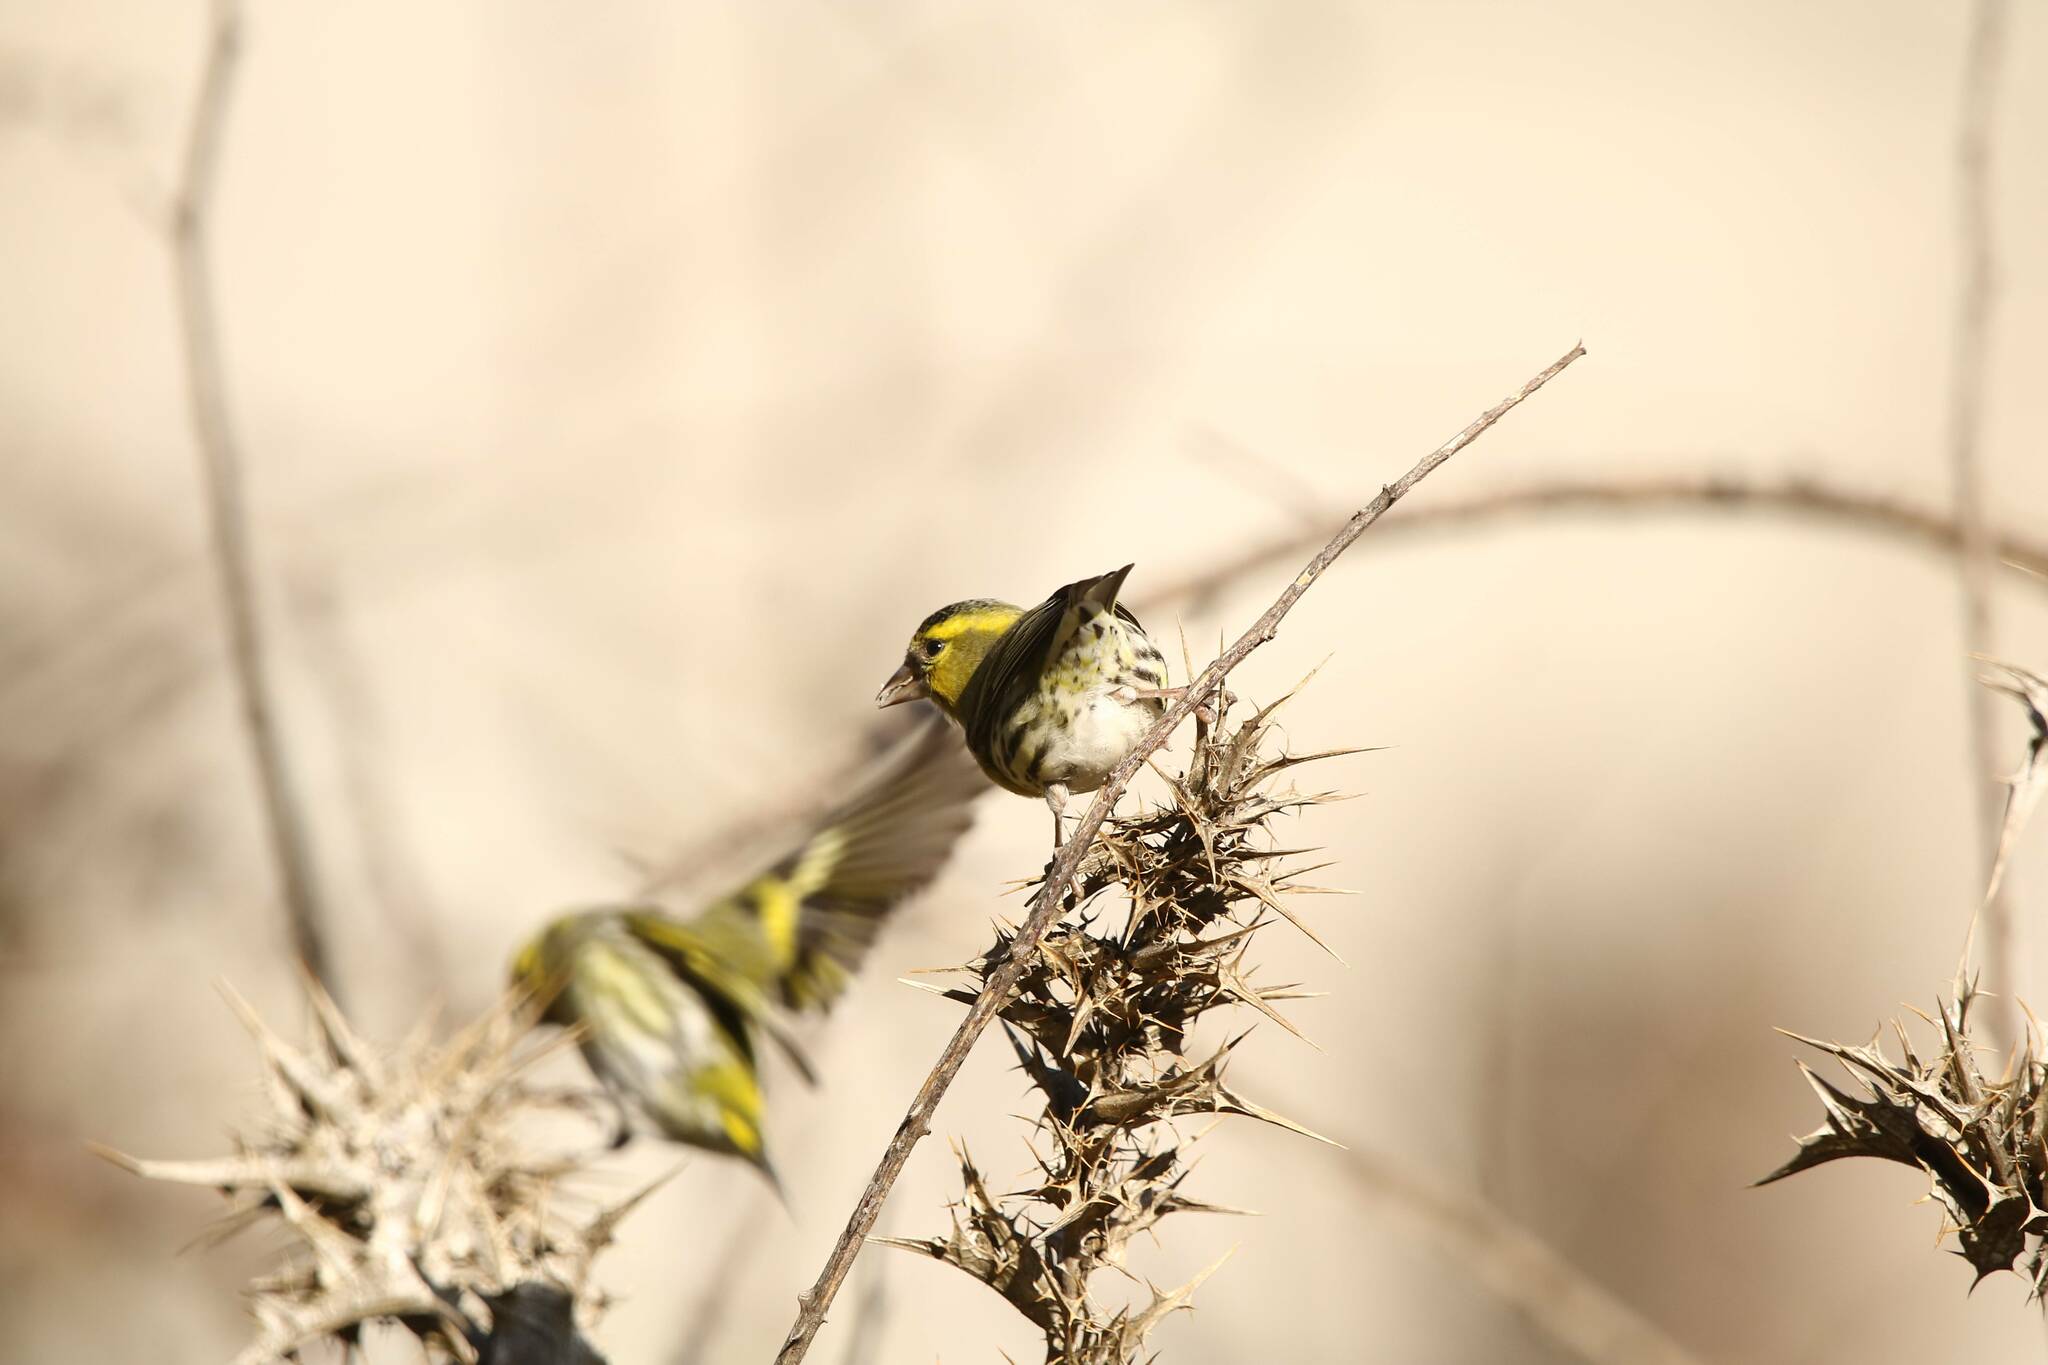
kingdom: Animalia
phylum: Chordata
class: Aves
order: Passeriformes
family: Fringillidae
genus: Spinus
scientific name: Spinus spinus
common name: Eurasian siskin
